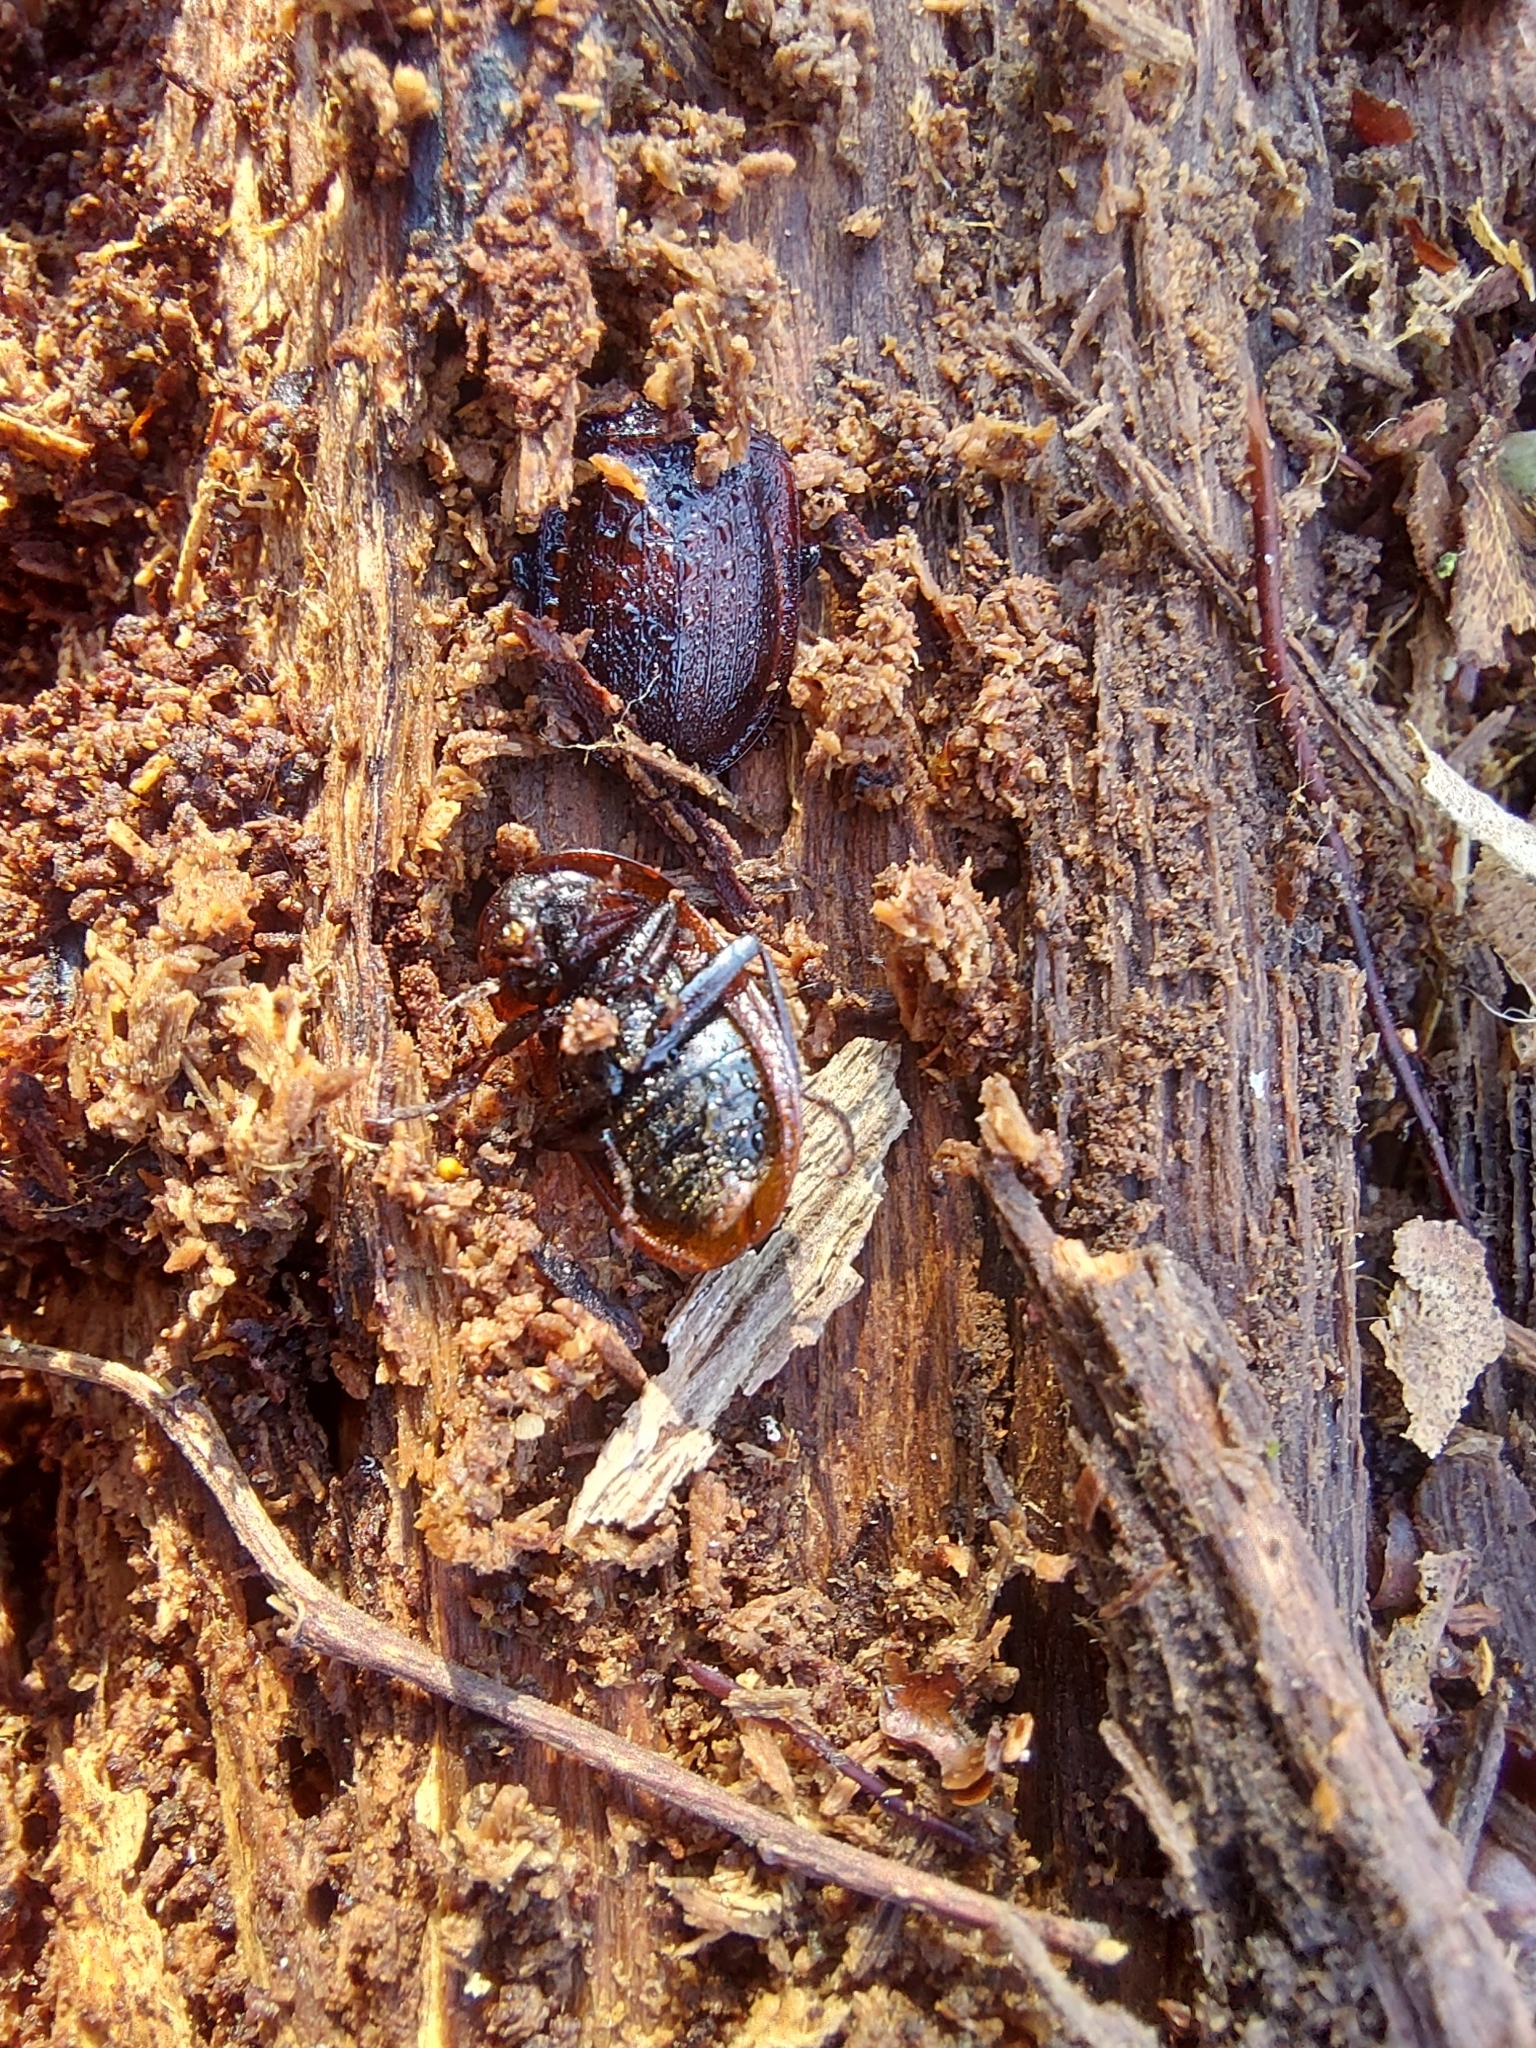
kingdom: Animalia
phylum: Arthropoda
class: Insecta
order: Coleoptera
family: Staphylinidae
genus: Silpha
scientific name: Silpha atrata
